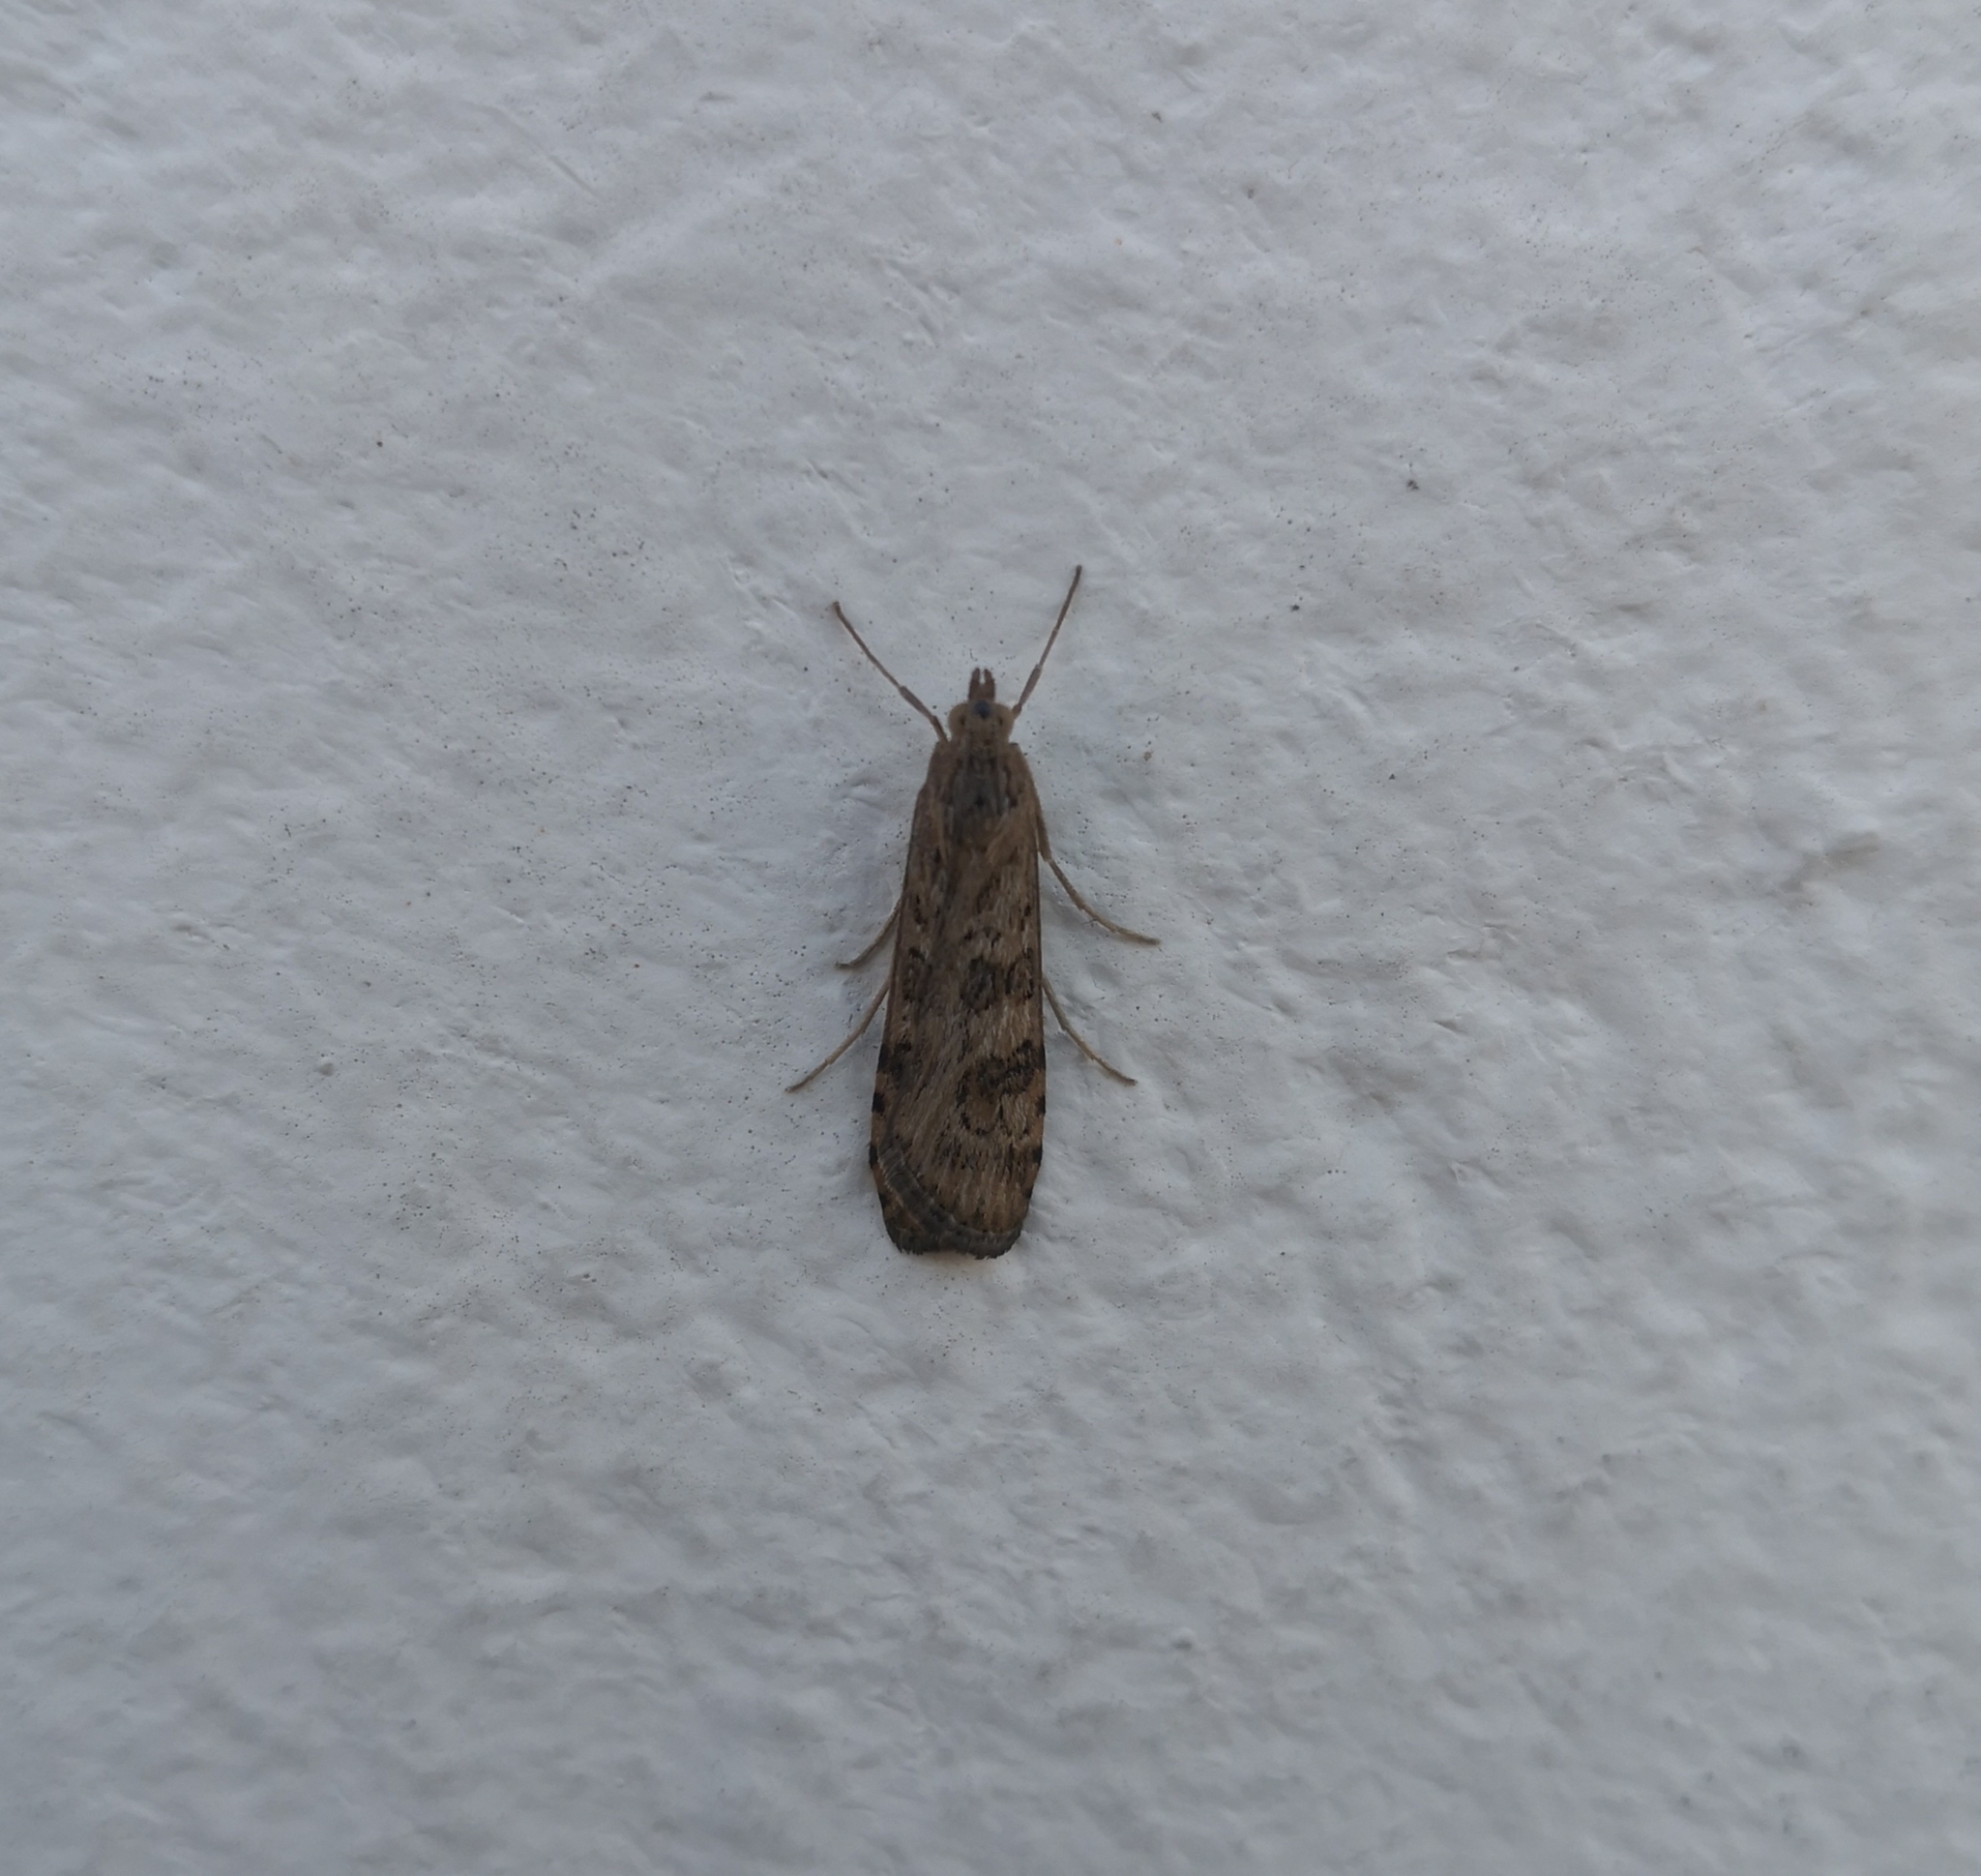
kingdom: Animalia
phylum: Arthropoda
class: Insecta
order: Lepidoptera
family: Crambidae
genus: Nomophila
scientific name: Nomophila noctuella
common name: Rush veneer
